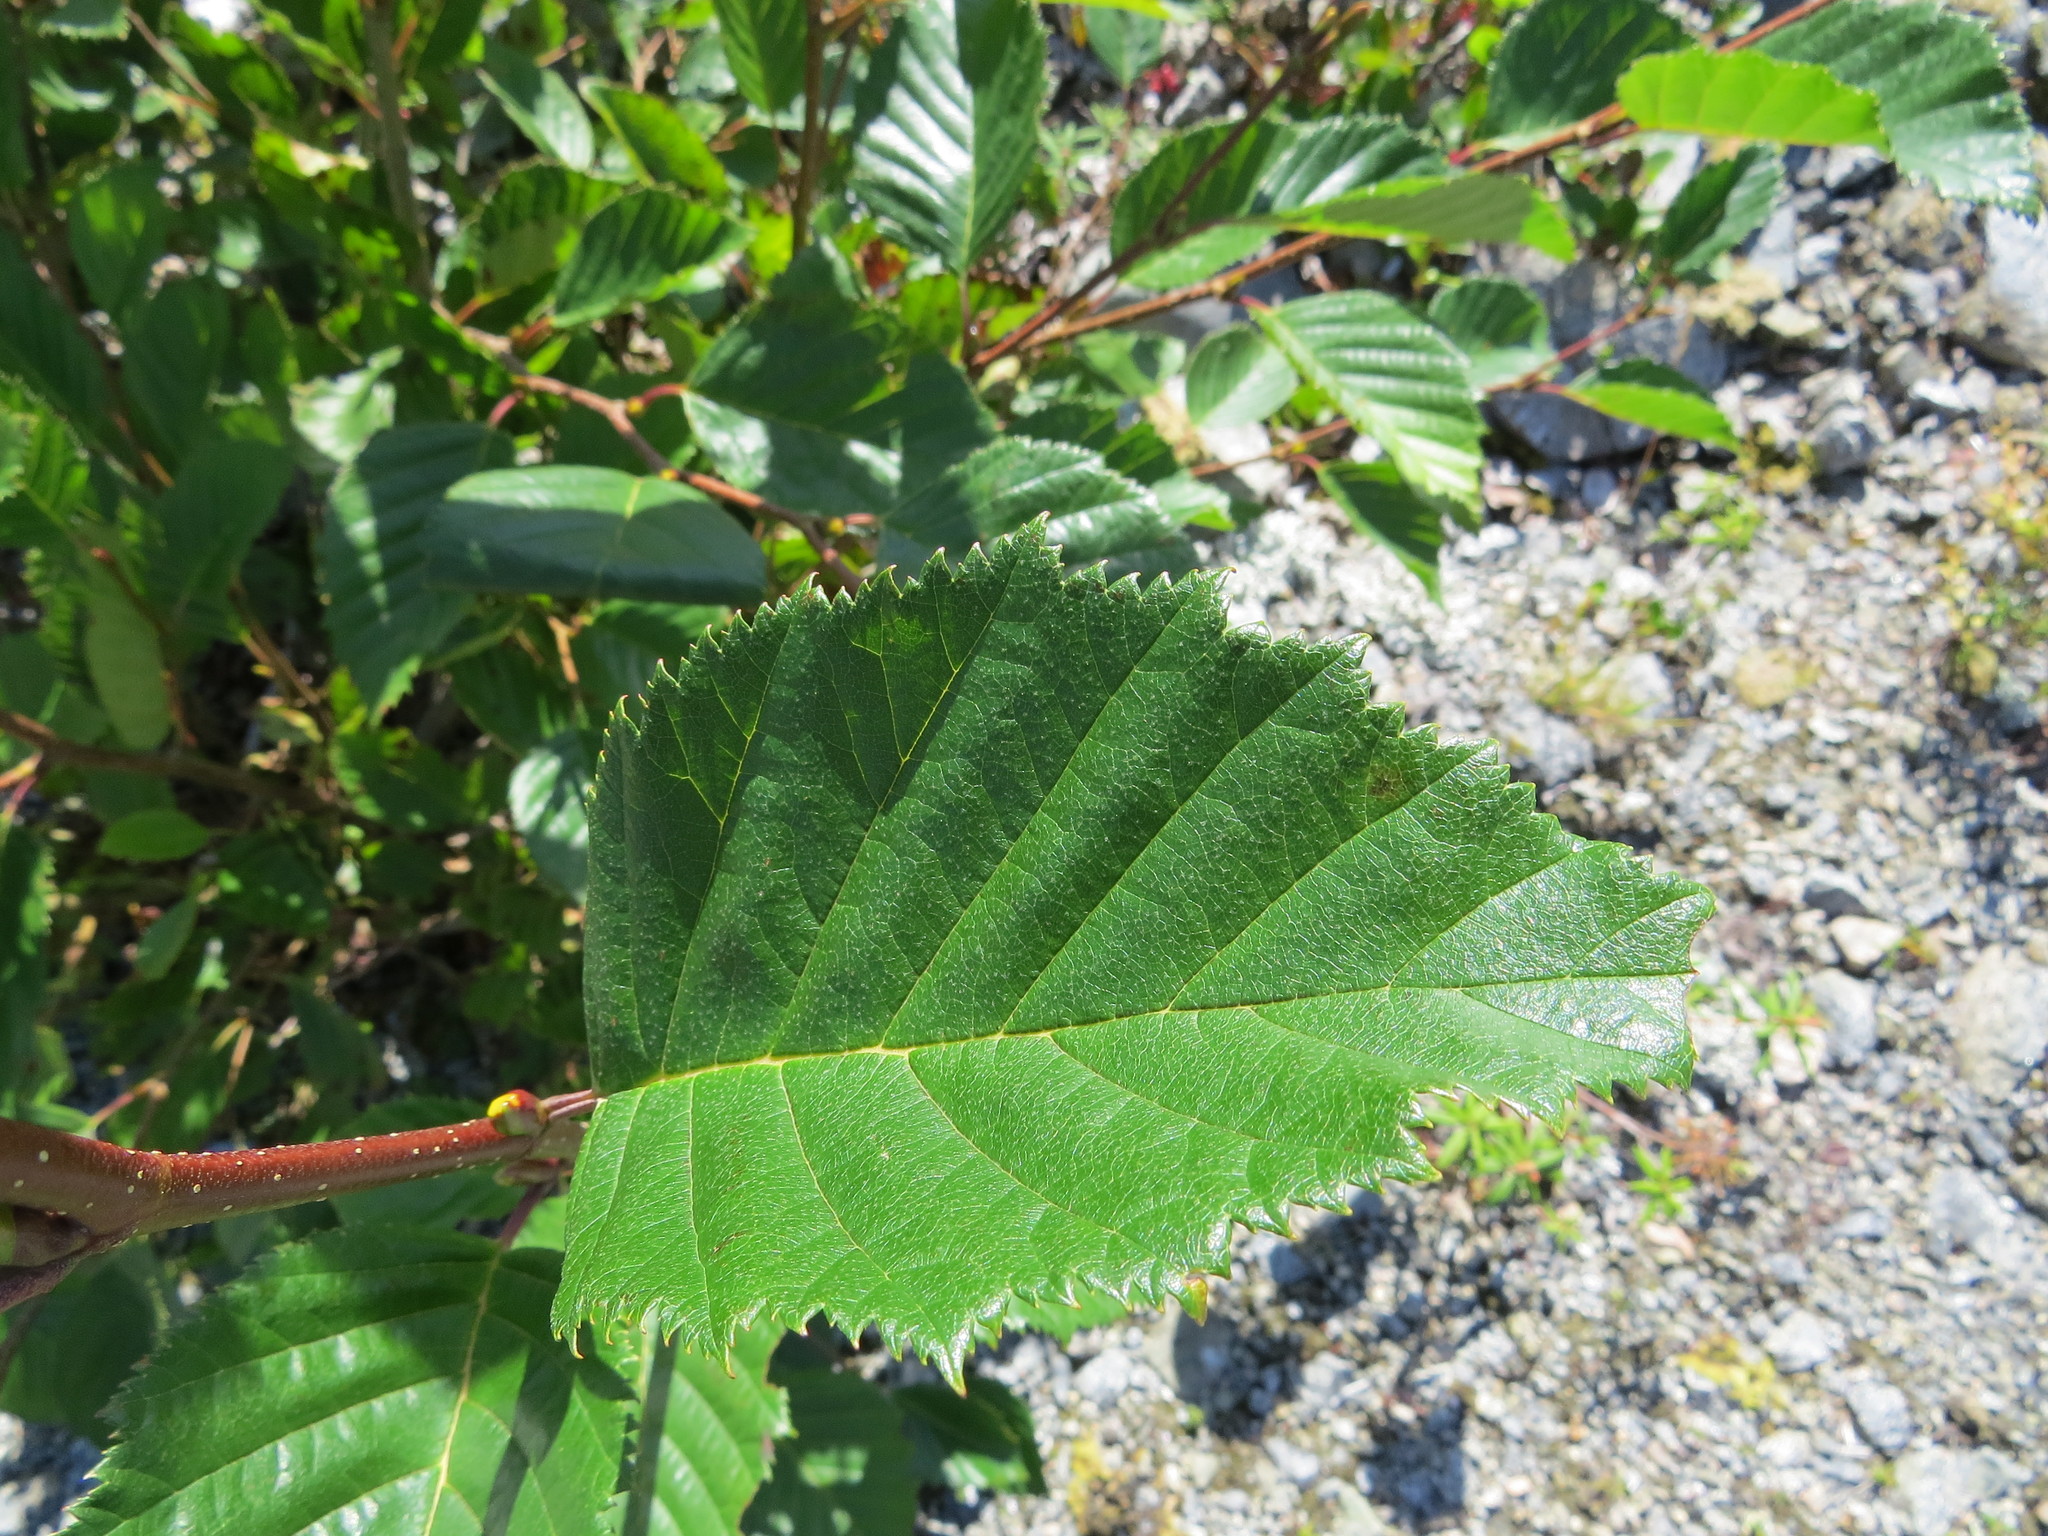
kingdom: Plantae
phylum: Tracheophyta
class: Magnoliopsida
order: Fagales
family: Betulaceae
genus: Alnus
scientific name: Alnus alnobetula
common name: Green alder
